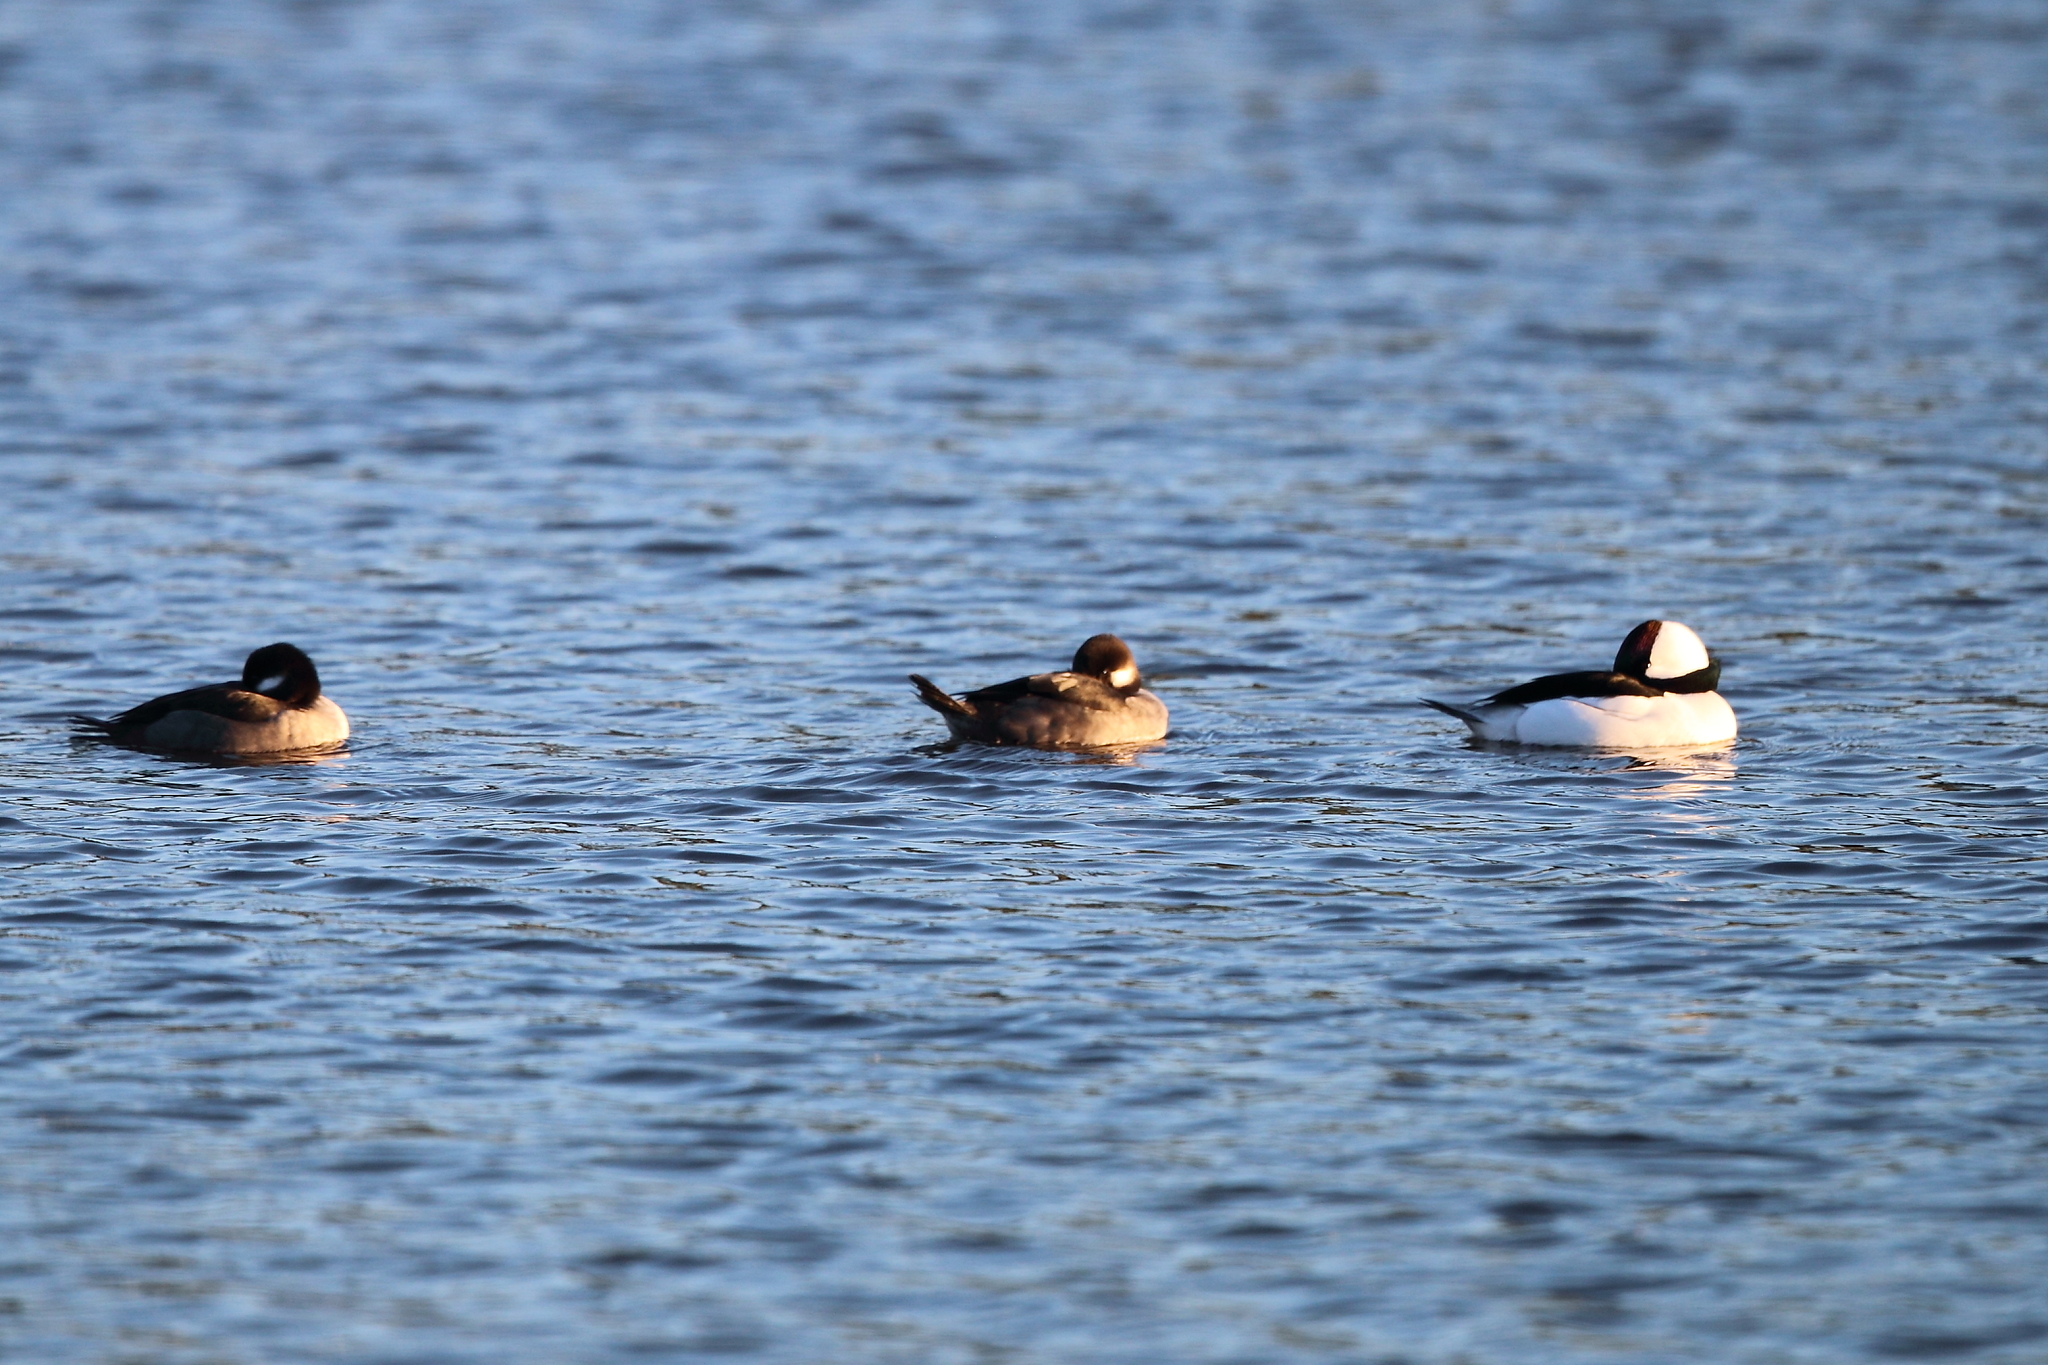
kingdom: Animalia
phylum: Chordata
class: Aves
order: Anseriformes
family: Anatidae
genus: Bucephala
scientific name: Bucephala albeola
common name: Bufflehead
